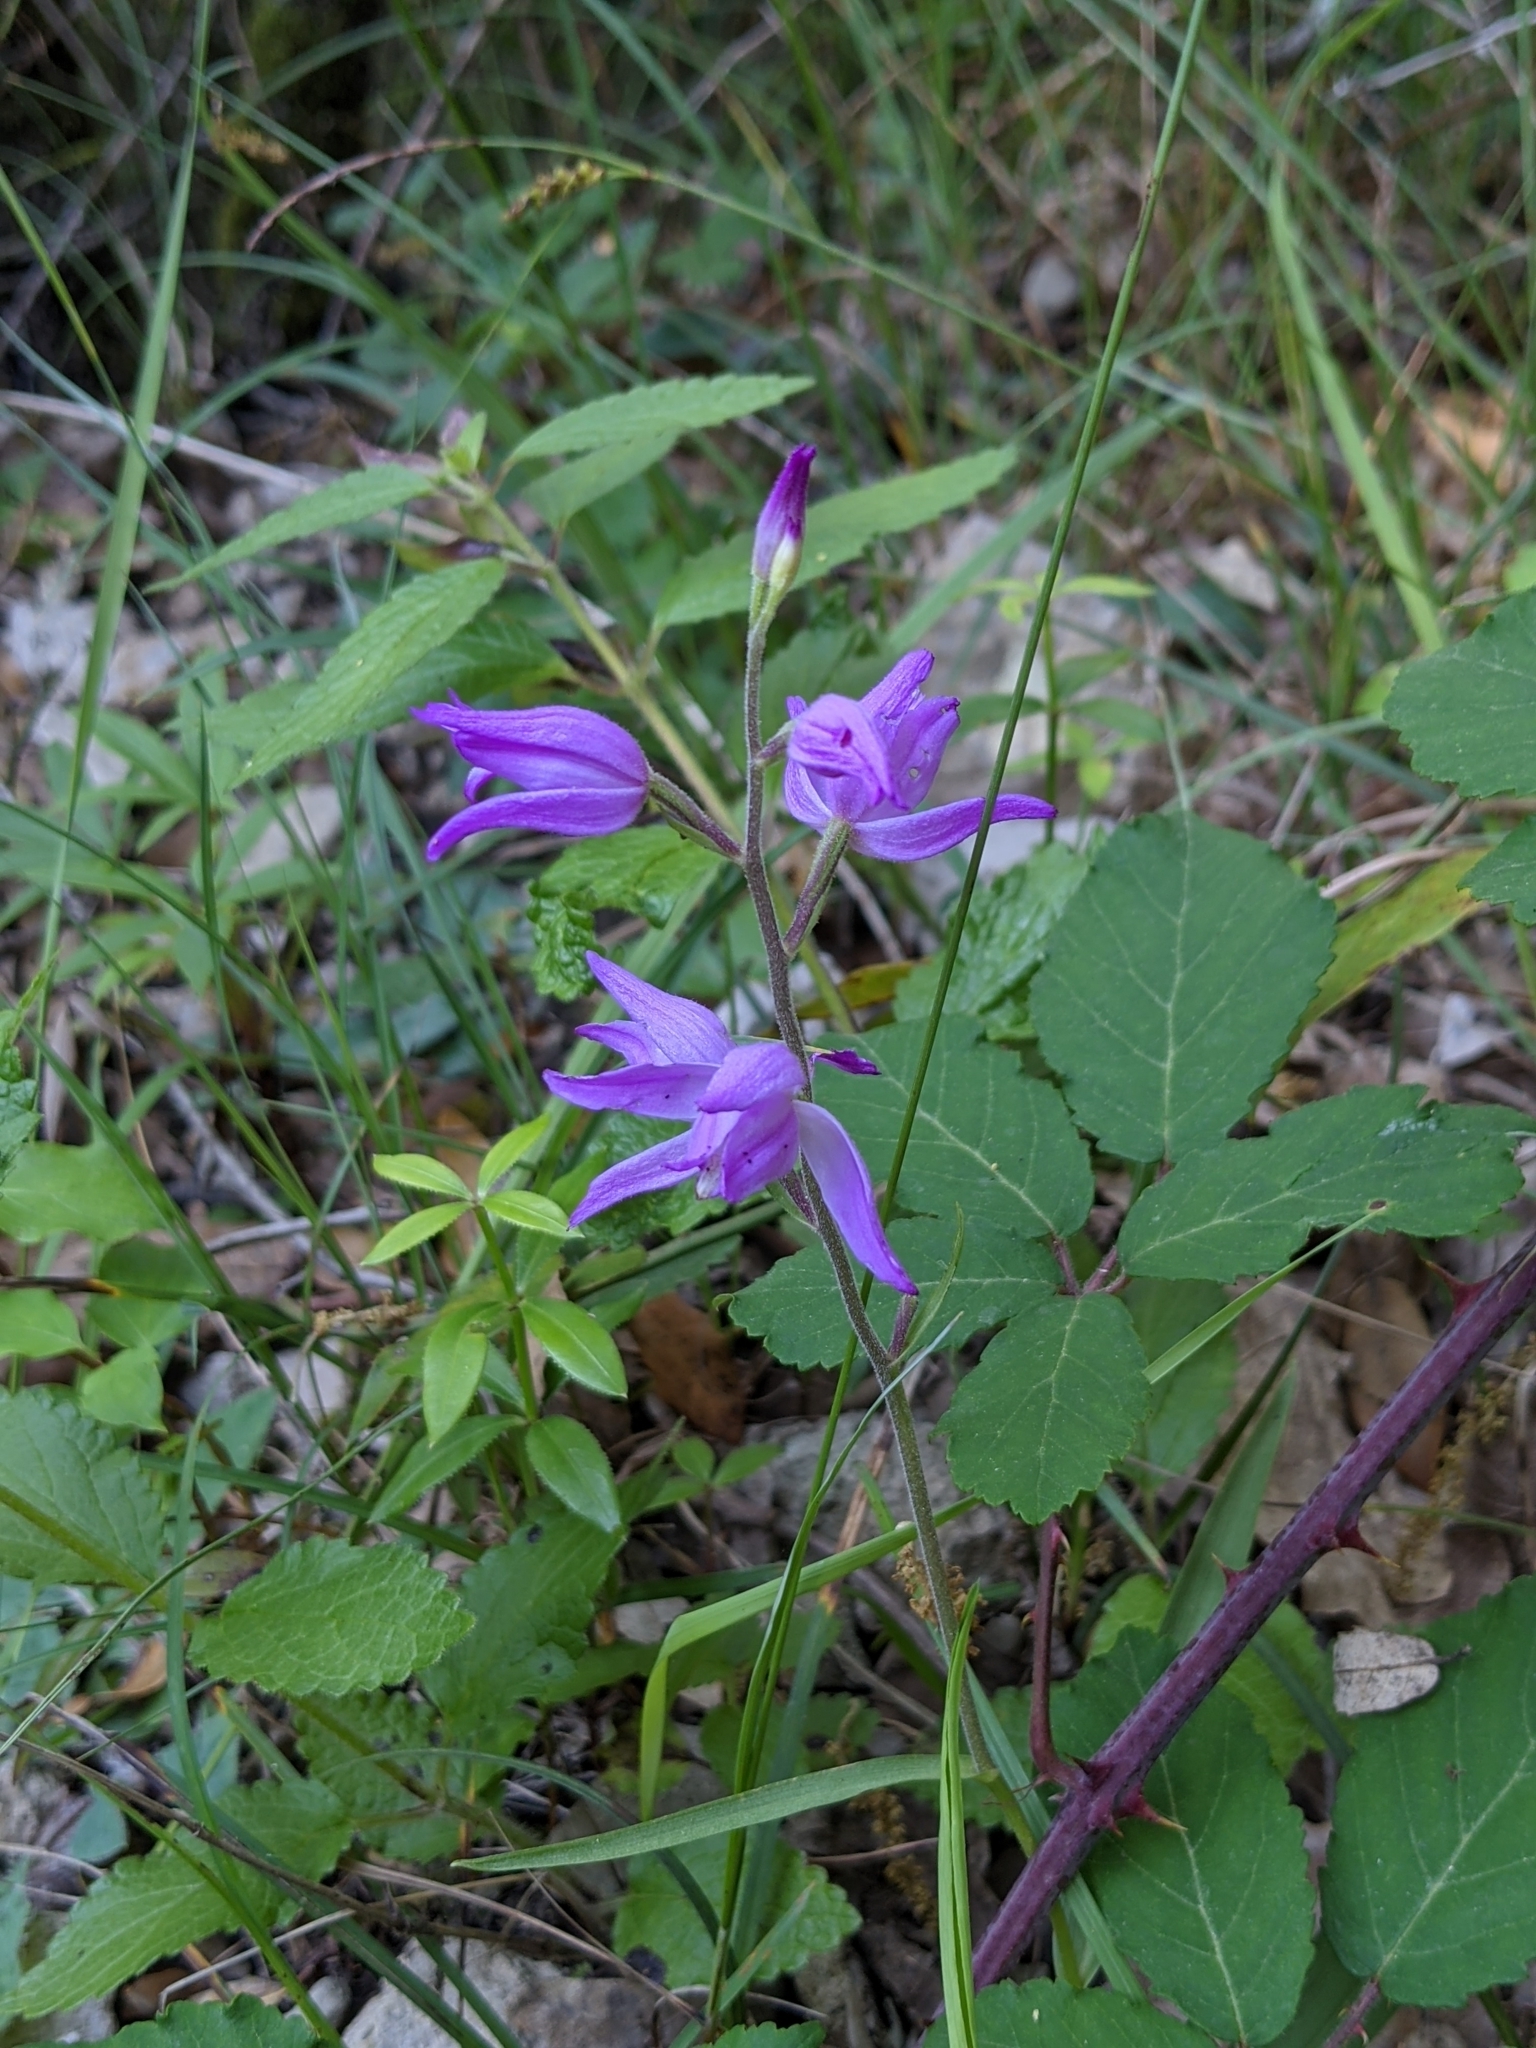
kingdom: Plantae
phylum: Tracheophyta
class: Liliopsida
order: Asparagales
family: Orchidaceae
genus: Cephalanthera
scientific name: Cephalanthera rubra
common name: Red helleborine
